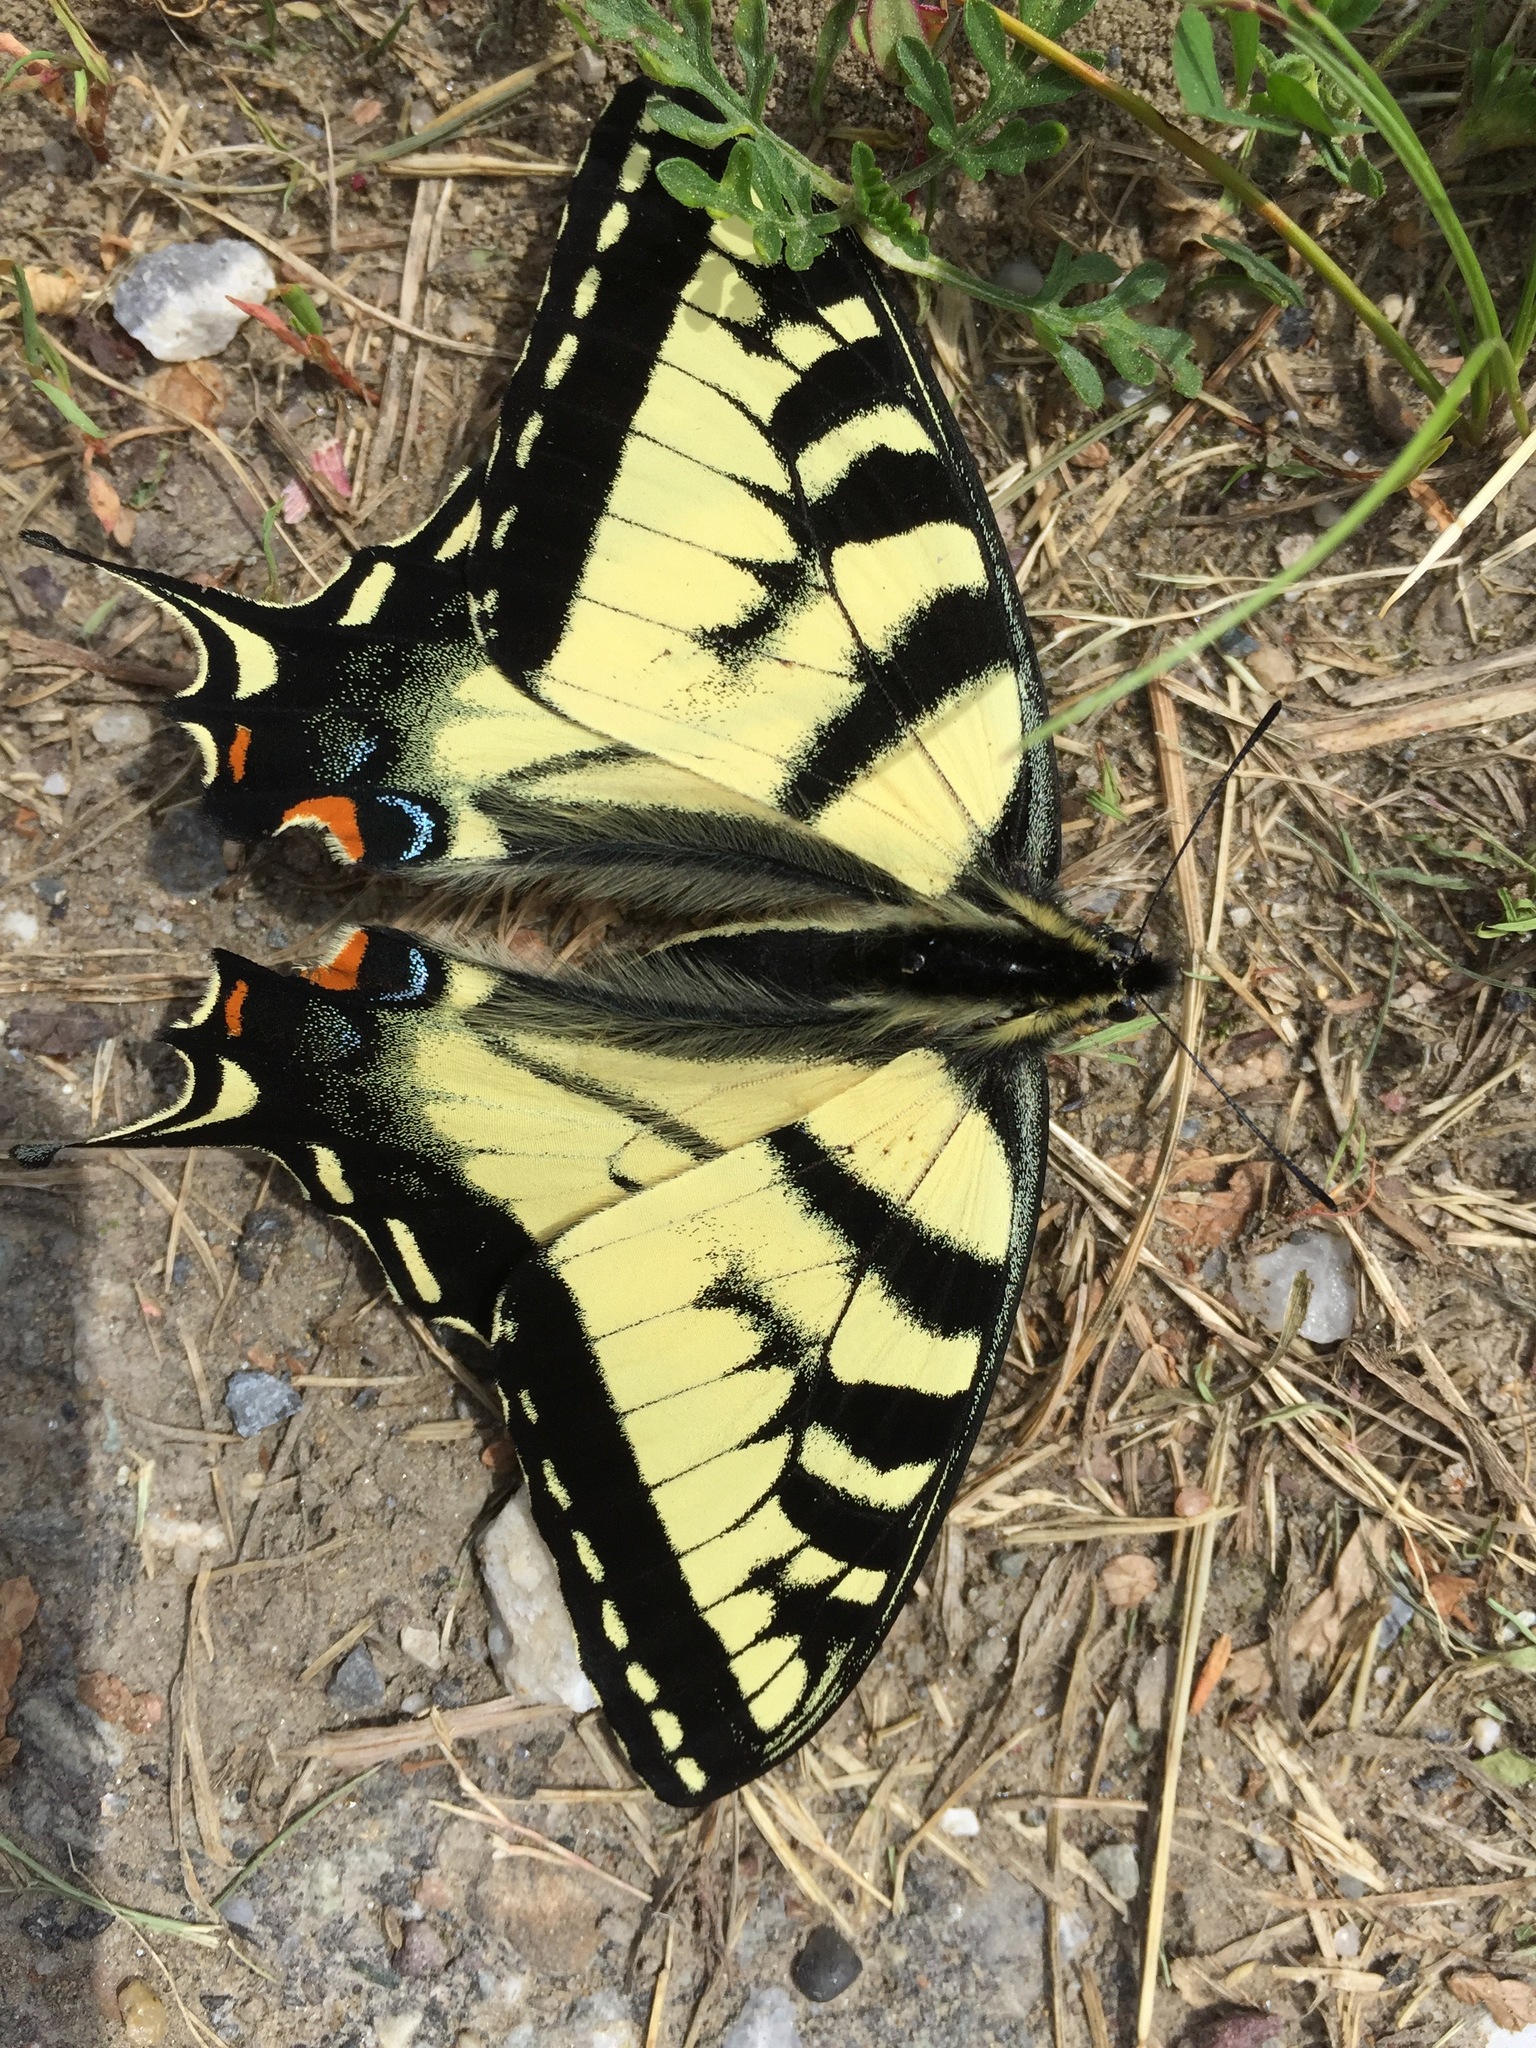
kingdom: Animalia
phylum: Arthropoda
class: Insecta
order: Lepidoptera
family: Papilionidae
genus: Papilio
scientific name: Papilio canadensis
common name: Canadian tiger swallowtail
